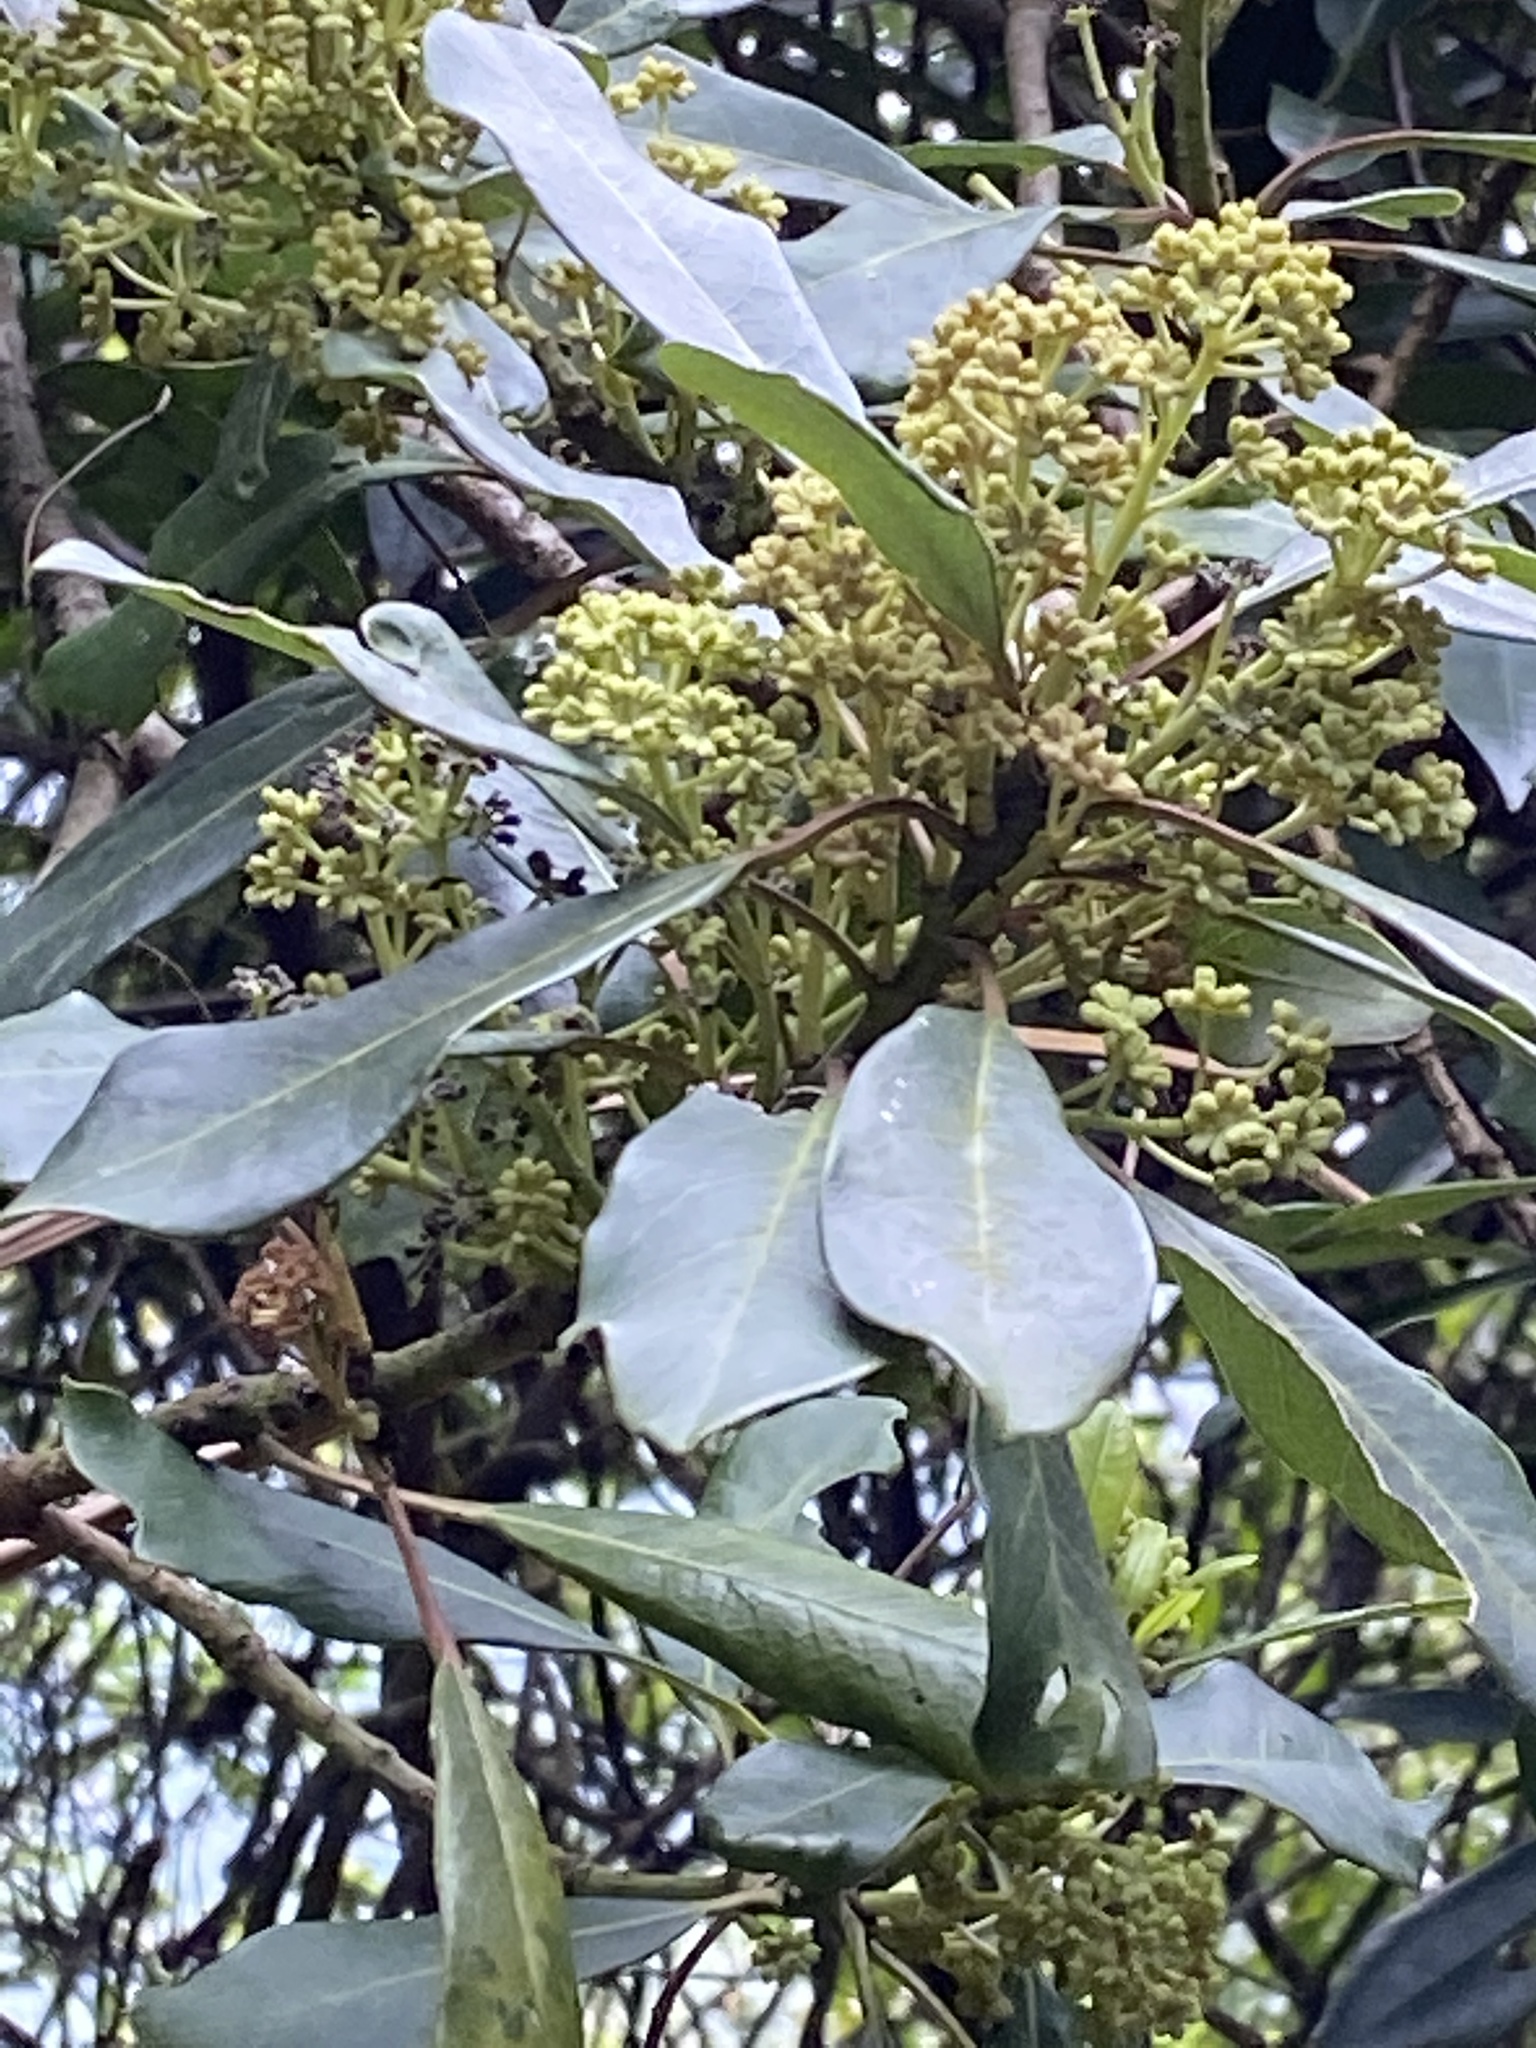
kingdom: Plantae
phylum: Tracheophyta
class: Magnoliopsida
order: Saxifragales
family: Daphniphyllaceae
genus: Daphniphyllum
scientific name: Daphniphyllum pentandrum
